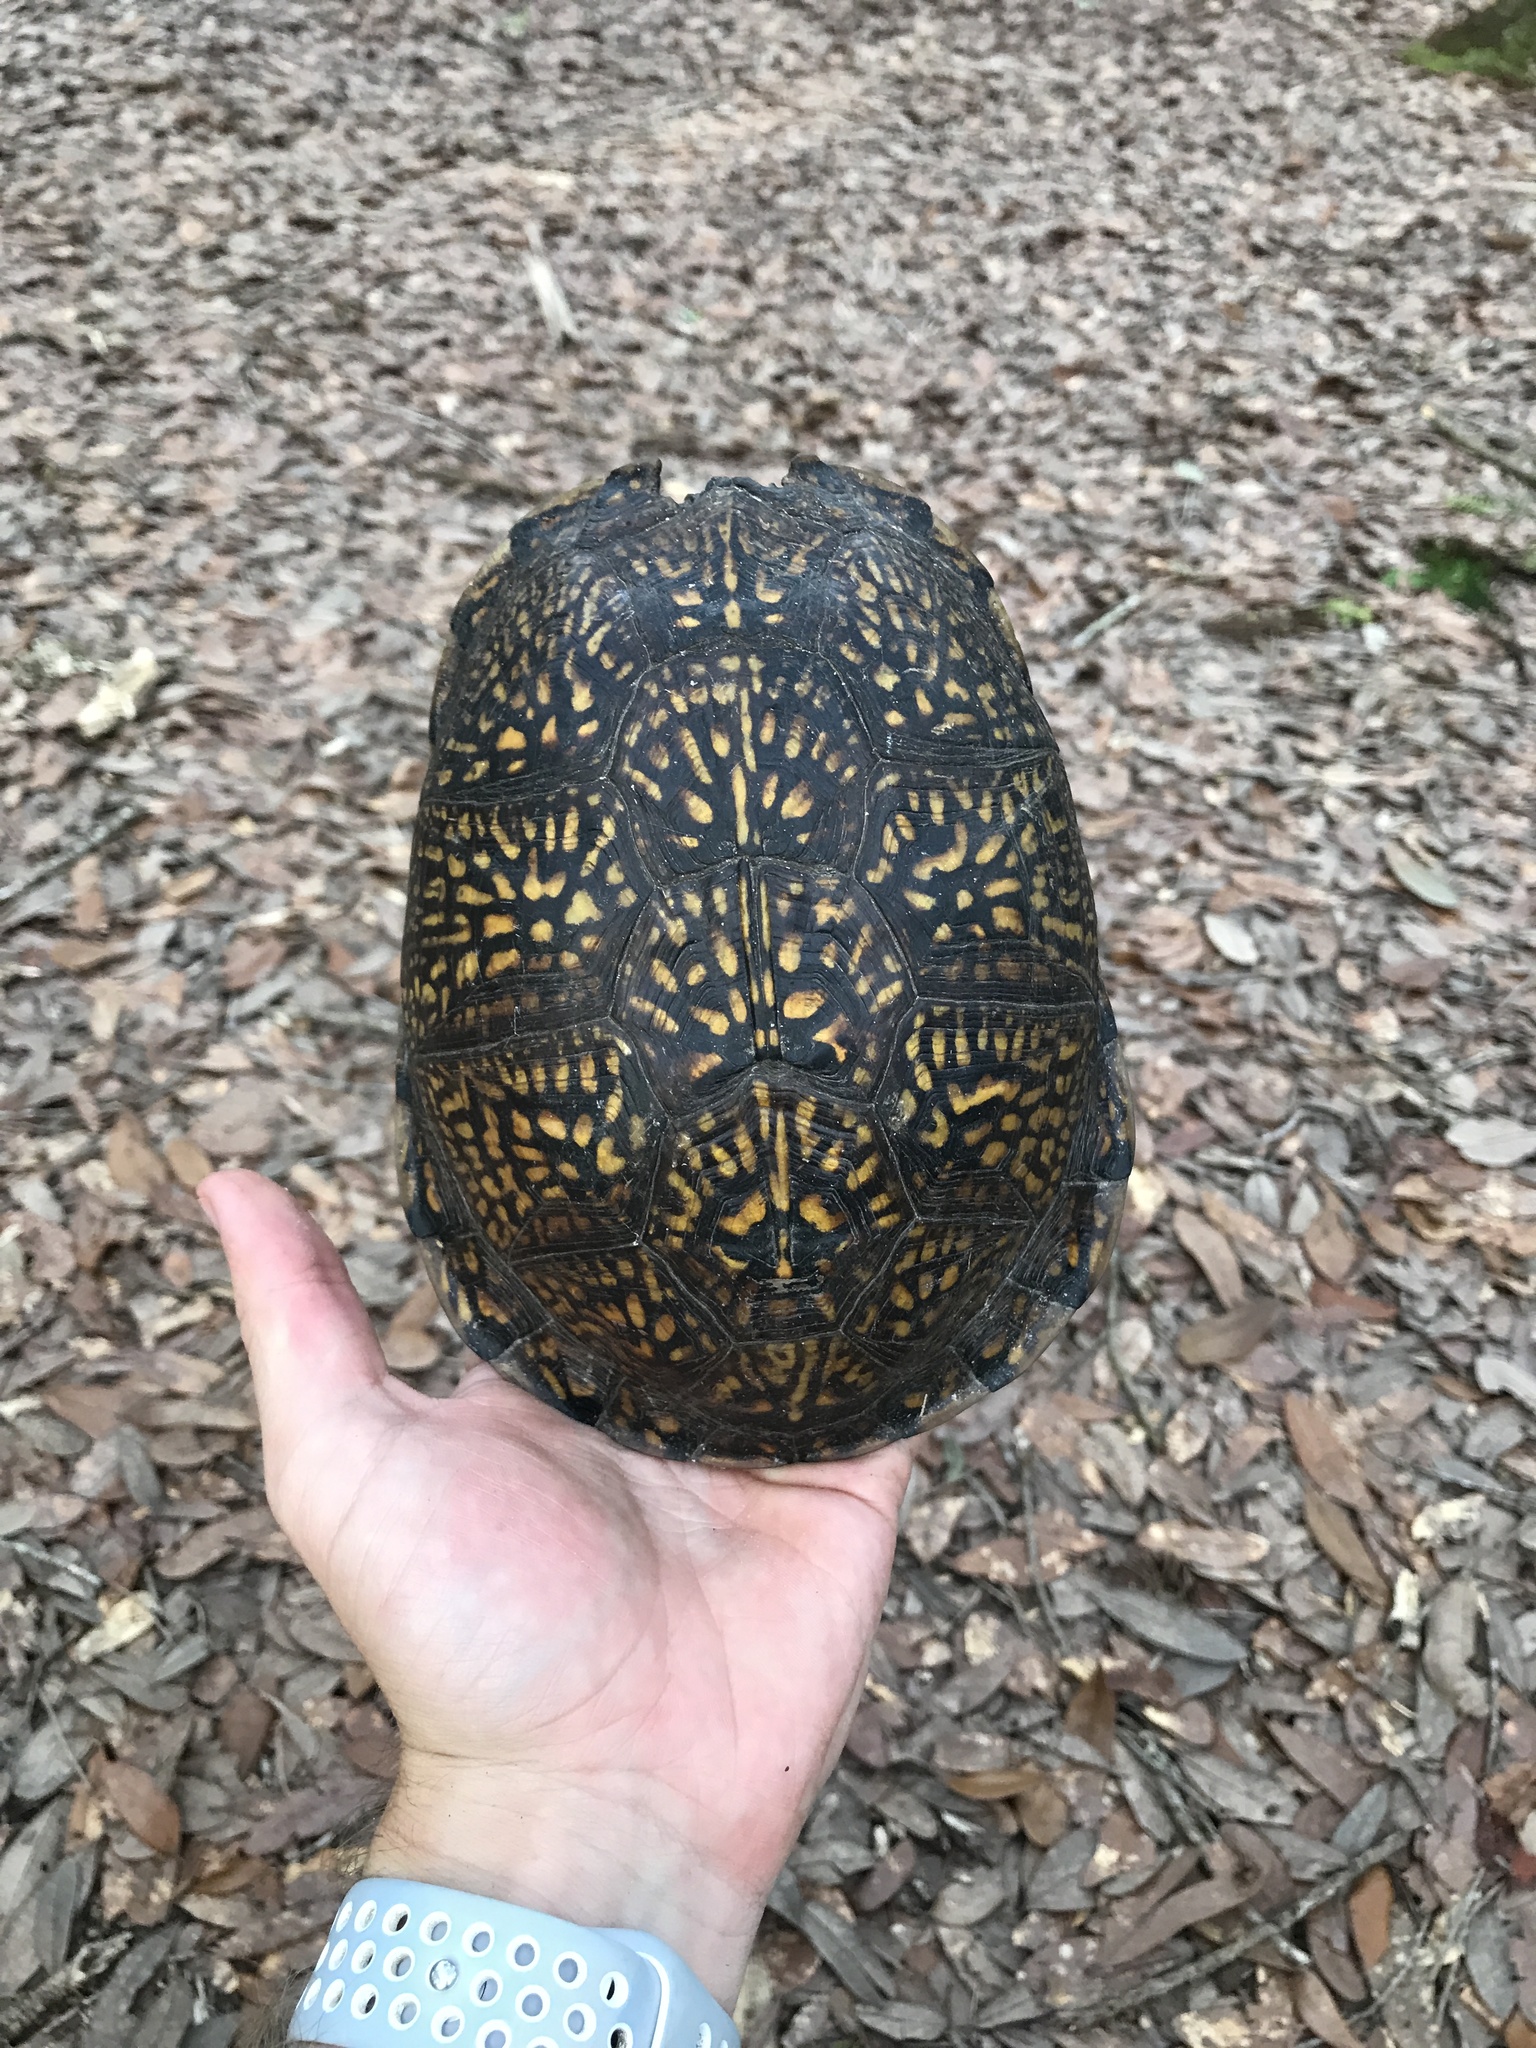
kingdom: Animalia
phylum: Chordata
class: Testudines
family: Emydidae
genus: Terrapene
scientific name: Terrapene carolina
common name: Common box turtle
